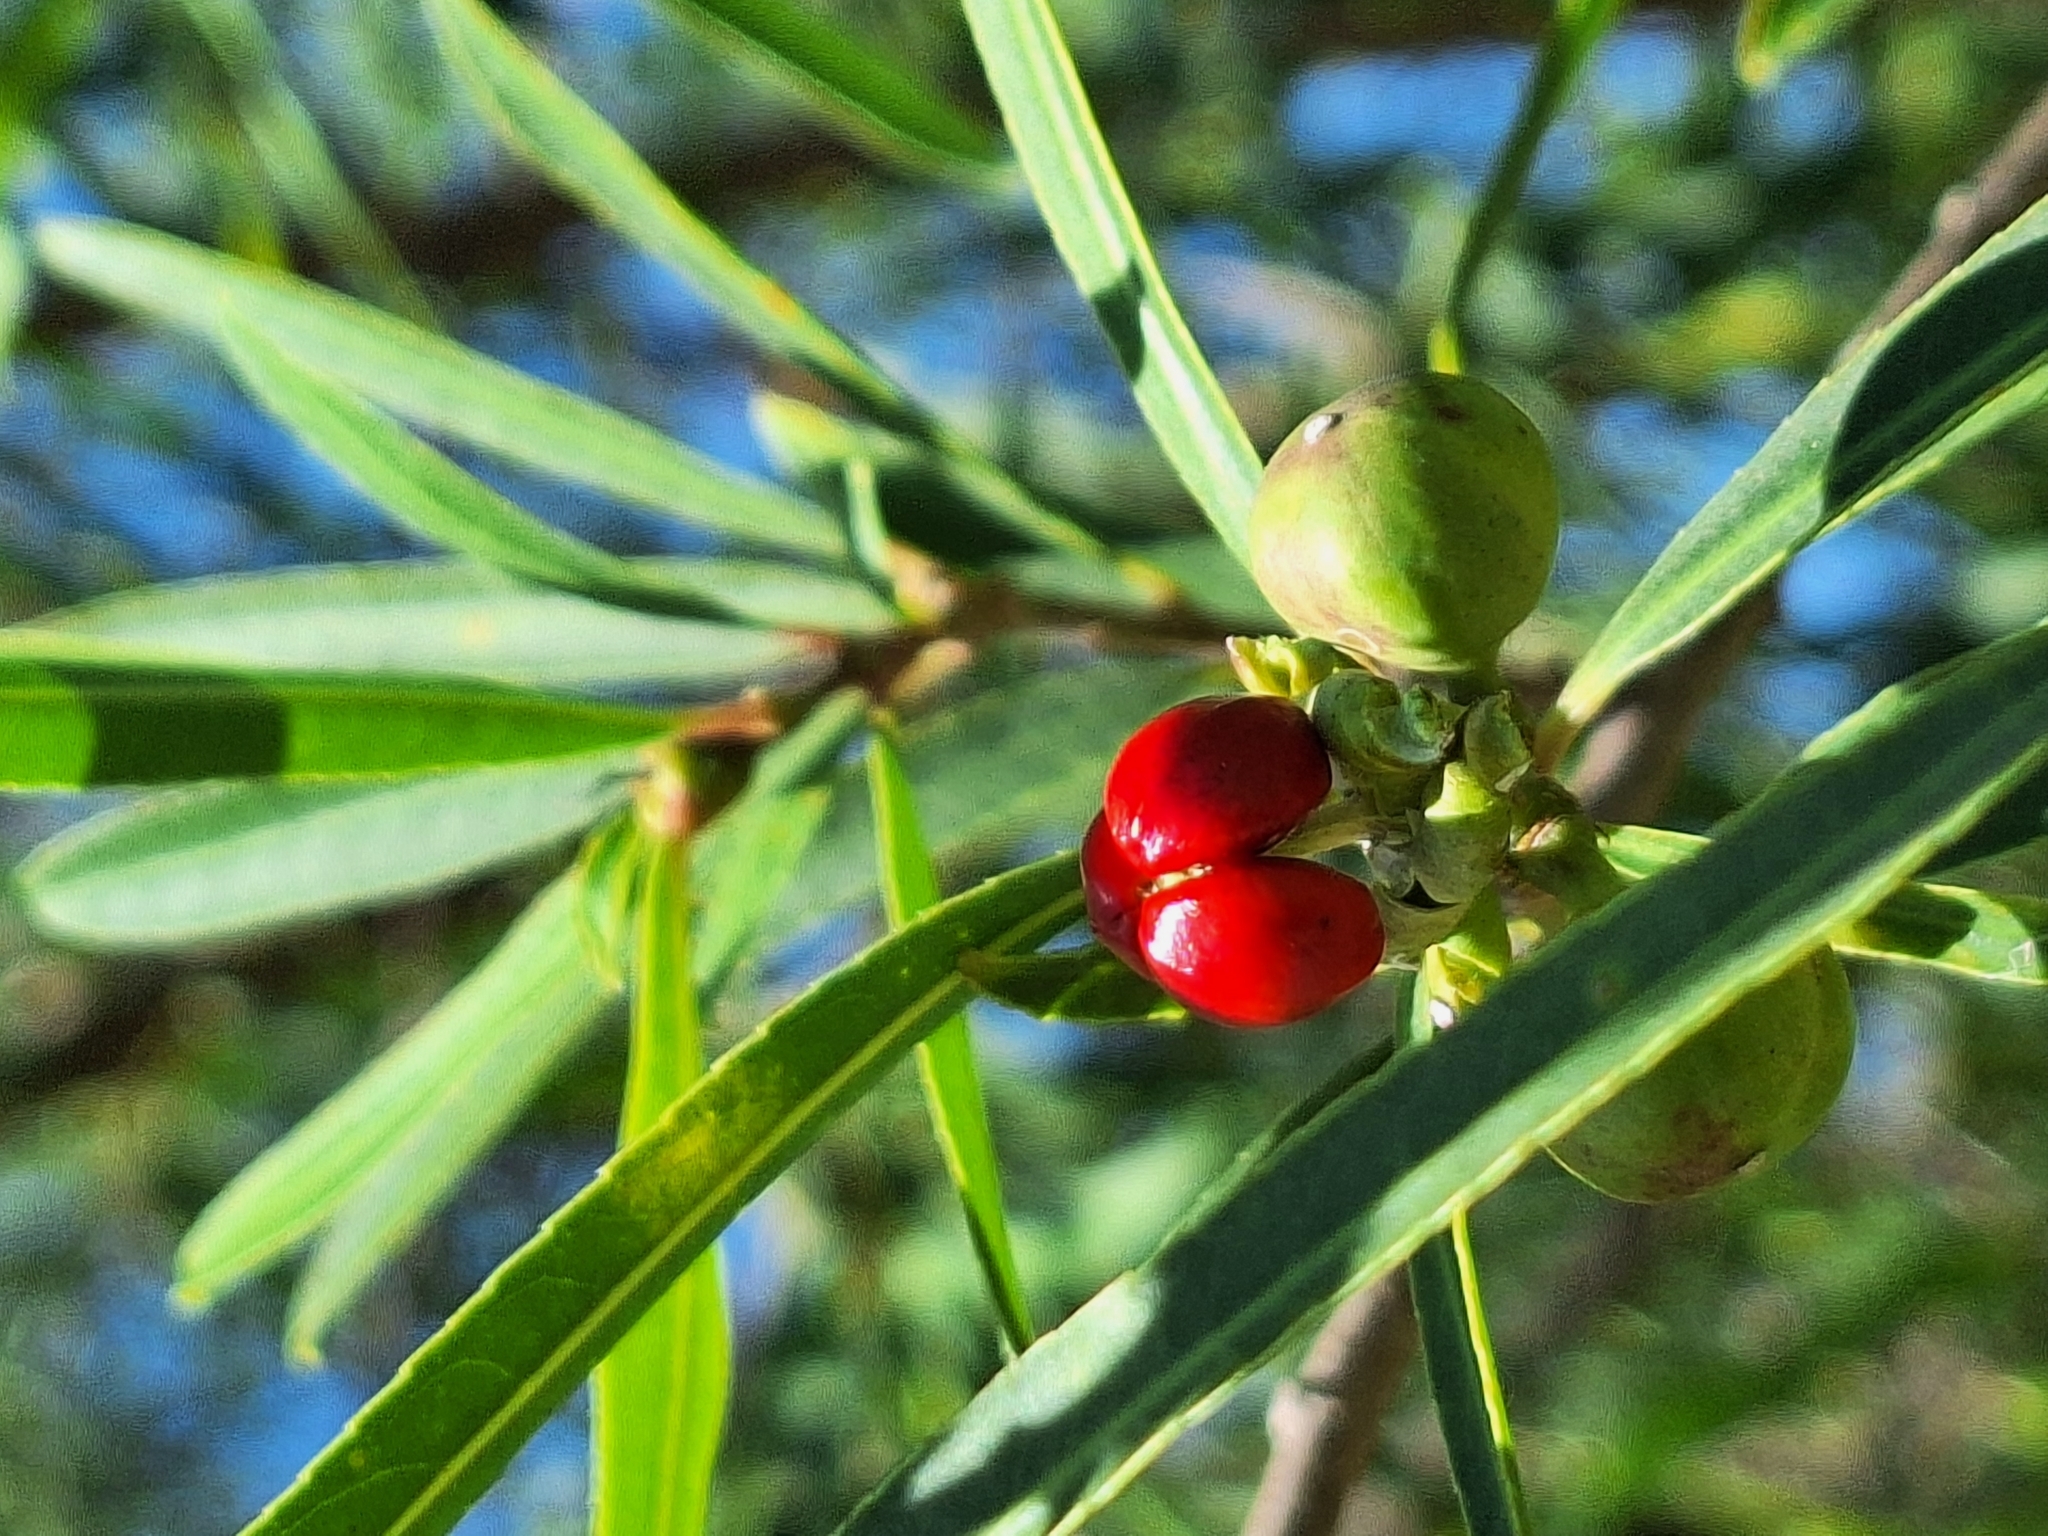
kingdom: Plantae
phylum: Tracheophyta
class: Magnoliopsida
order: Malpighiales
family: Euphorbiaceae
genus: Sapium
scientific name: Sapium haematospermum
